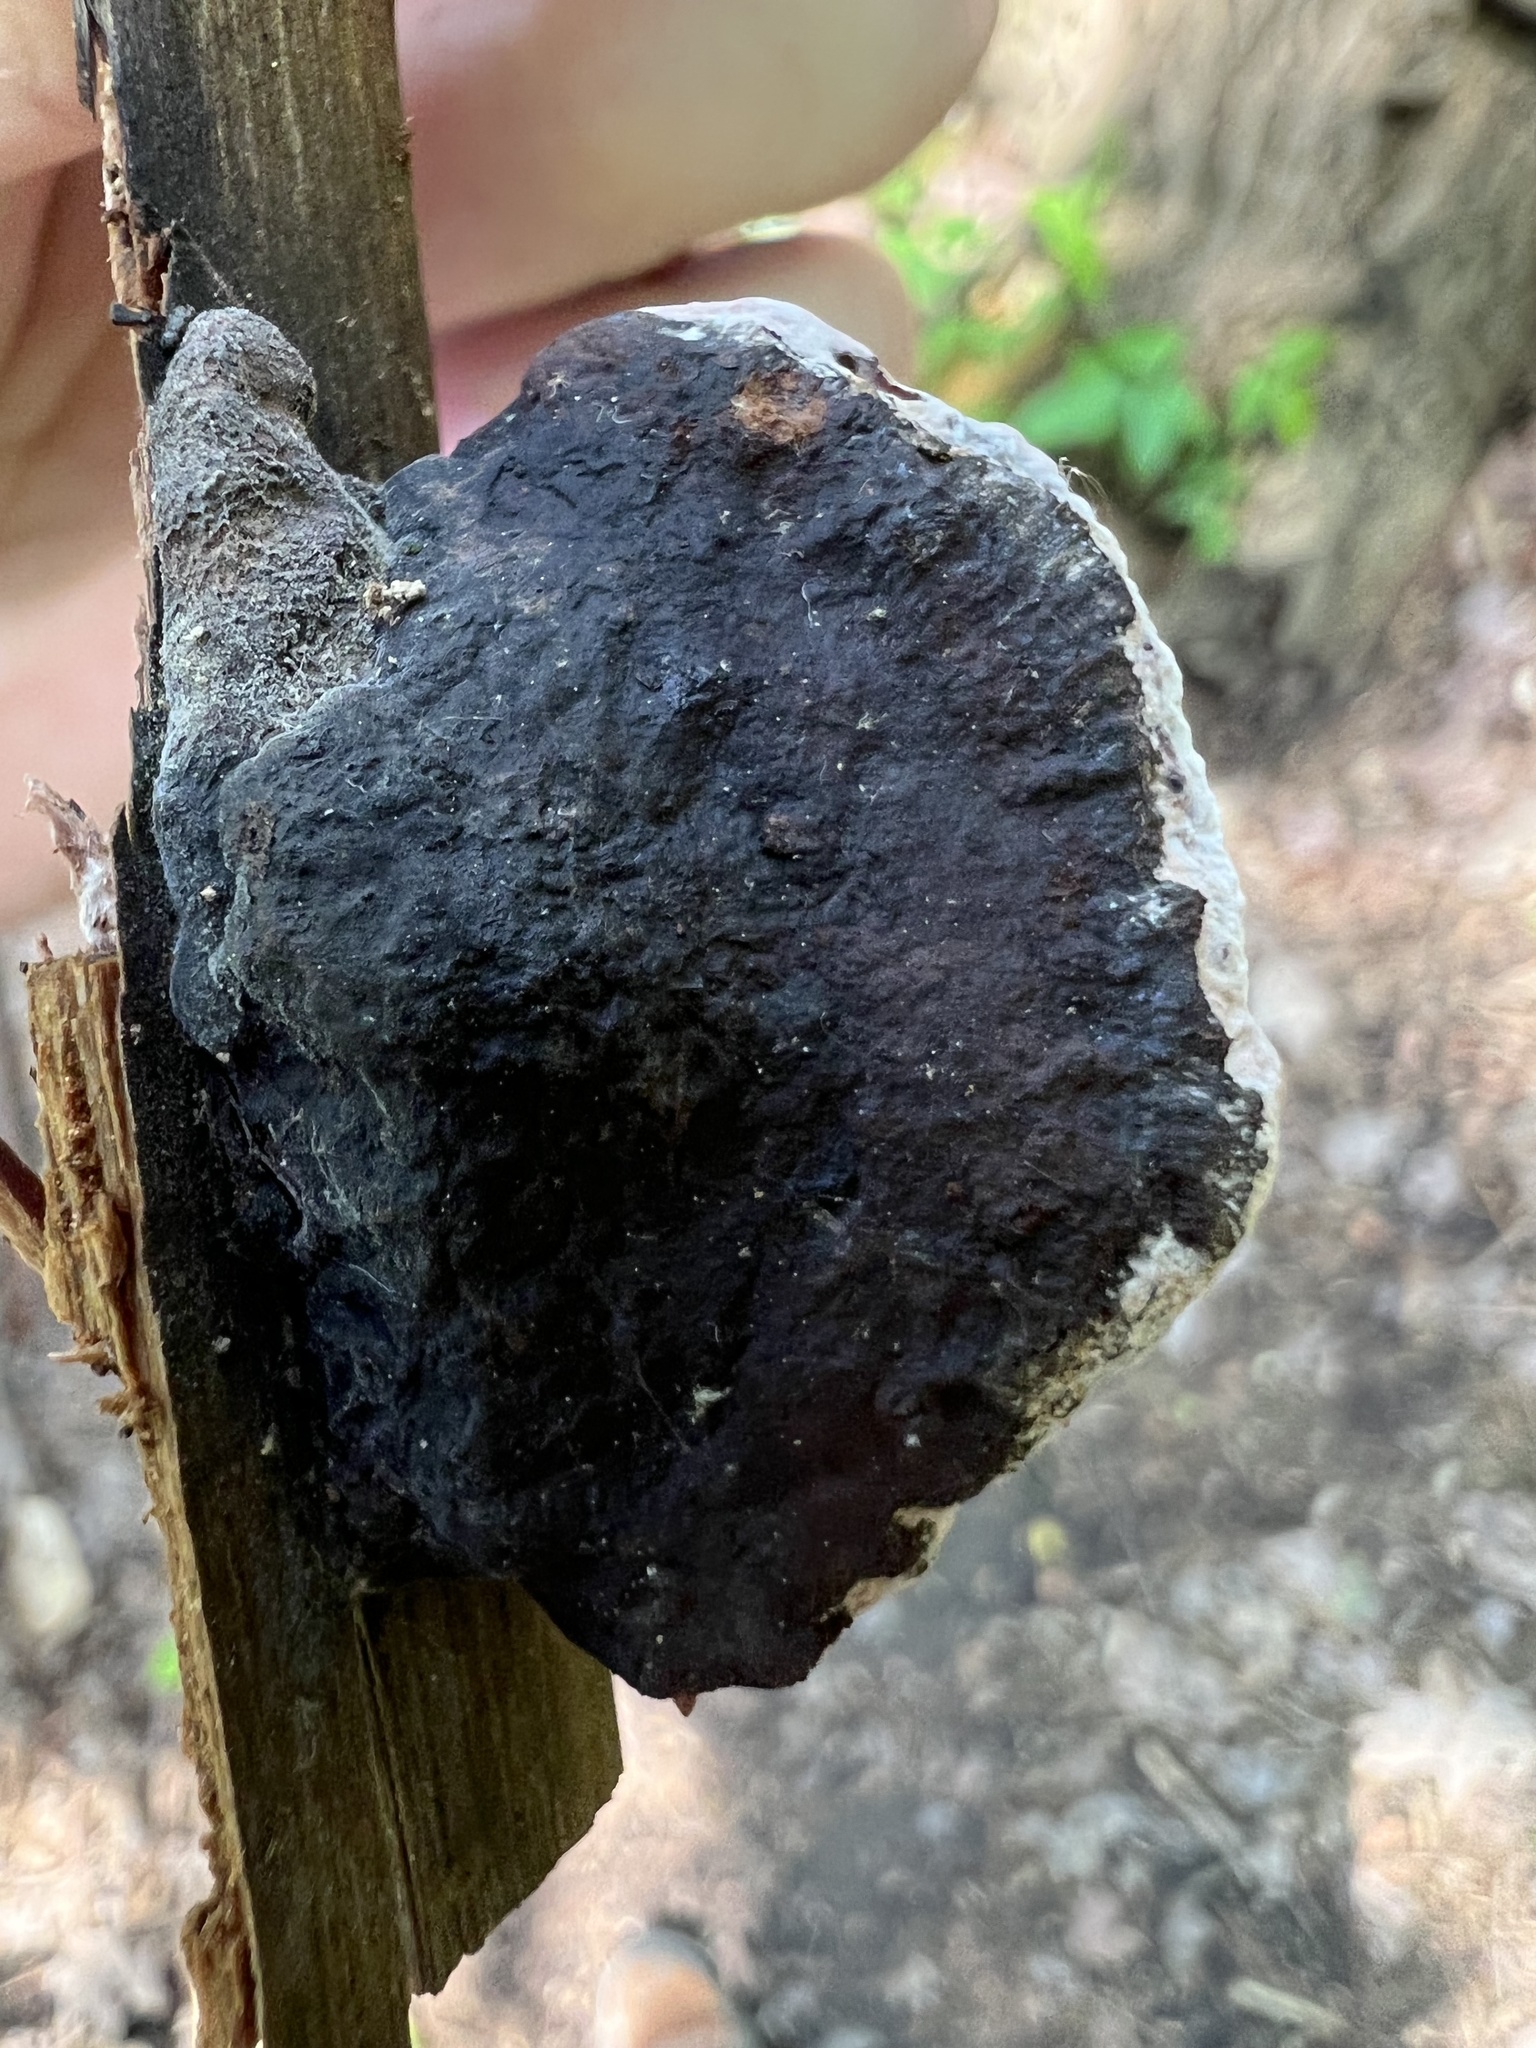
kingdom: Fungi
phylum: Basidiomycota
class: Agaricomycetes
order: Polyporales
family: Fomitopsidaceae
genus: Rhodofomes
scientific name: Rhodofomes roseus
